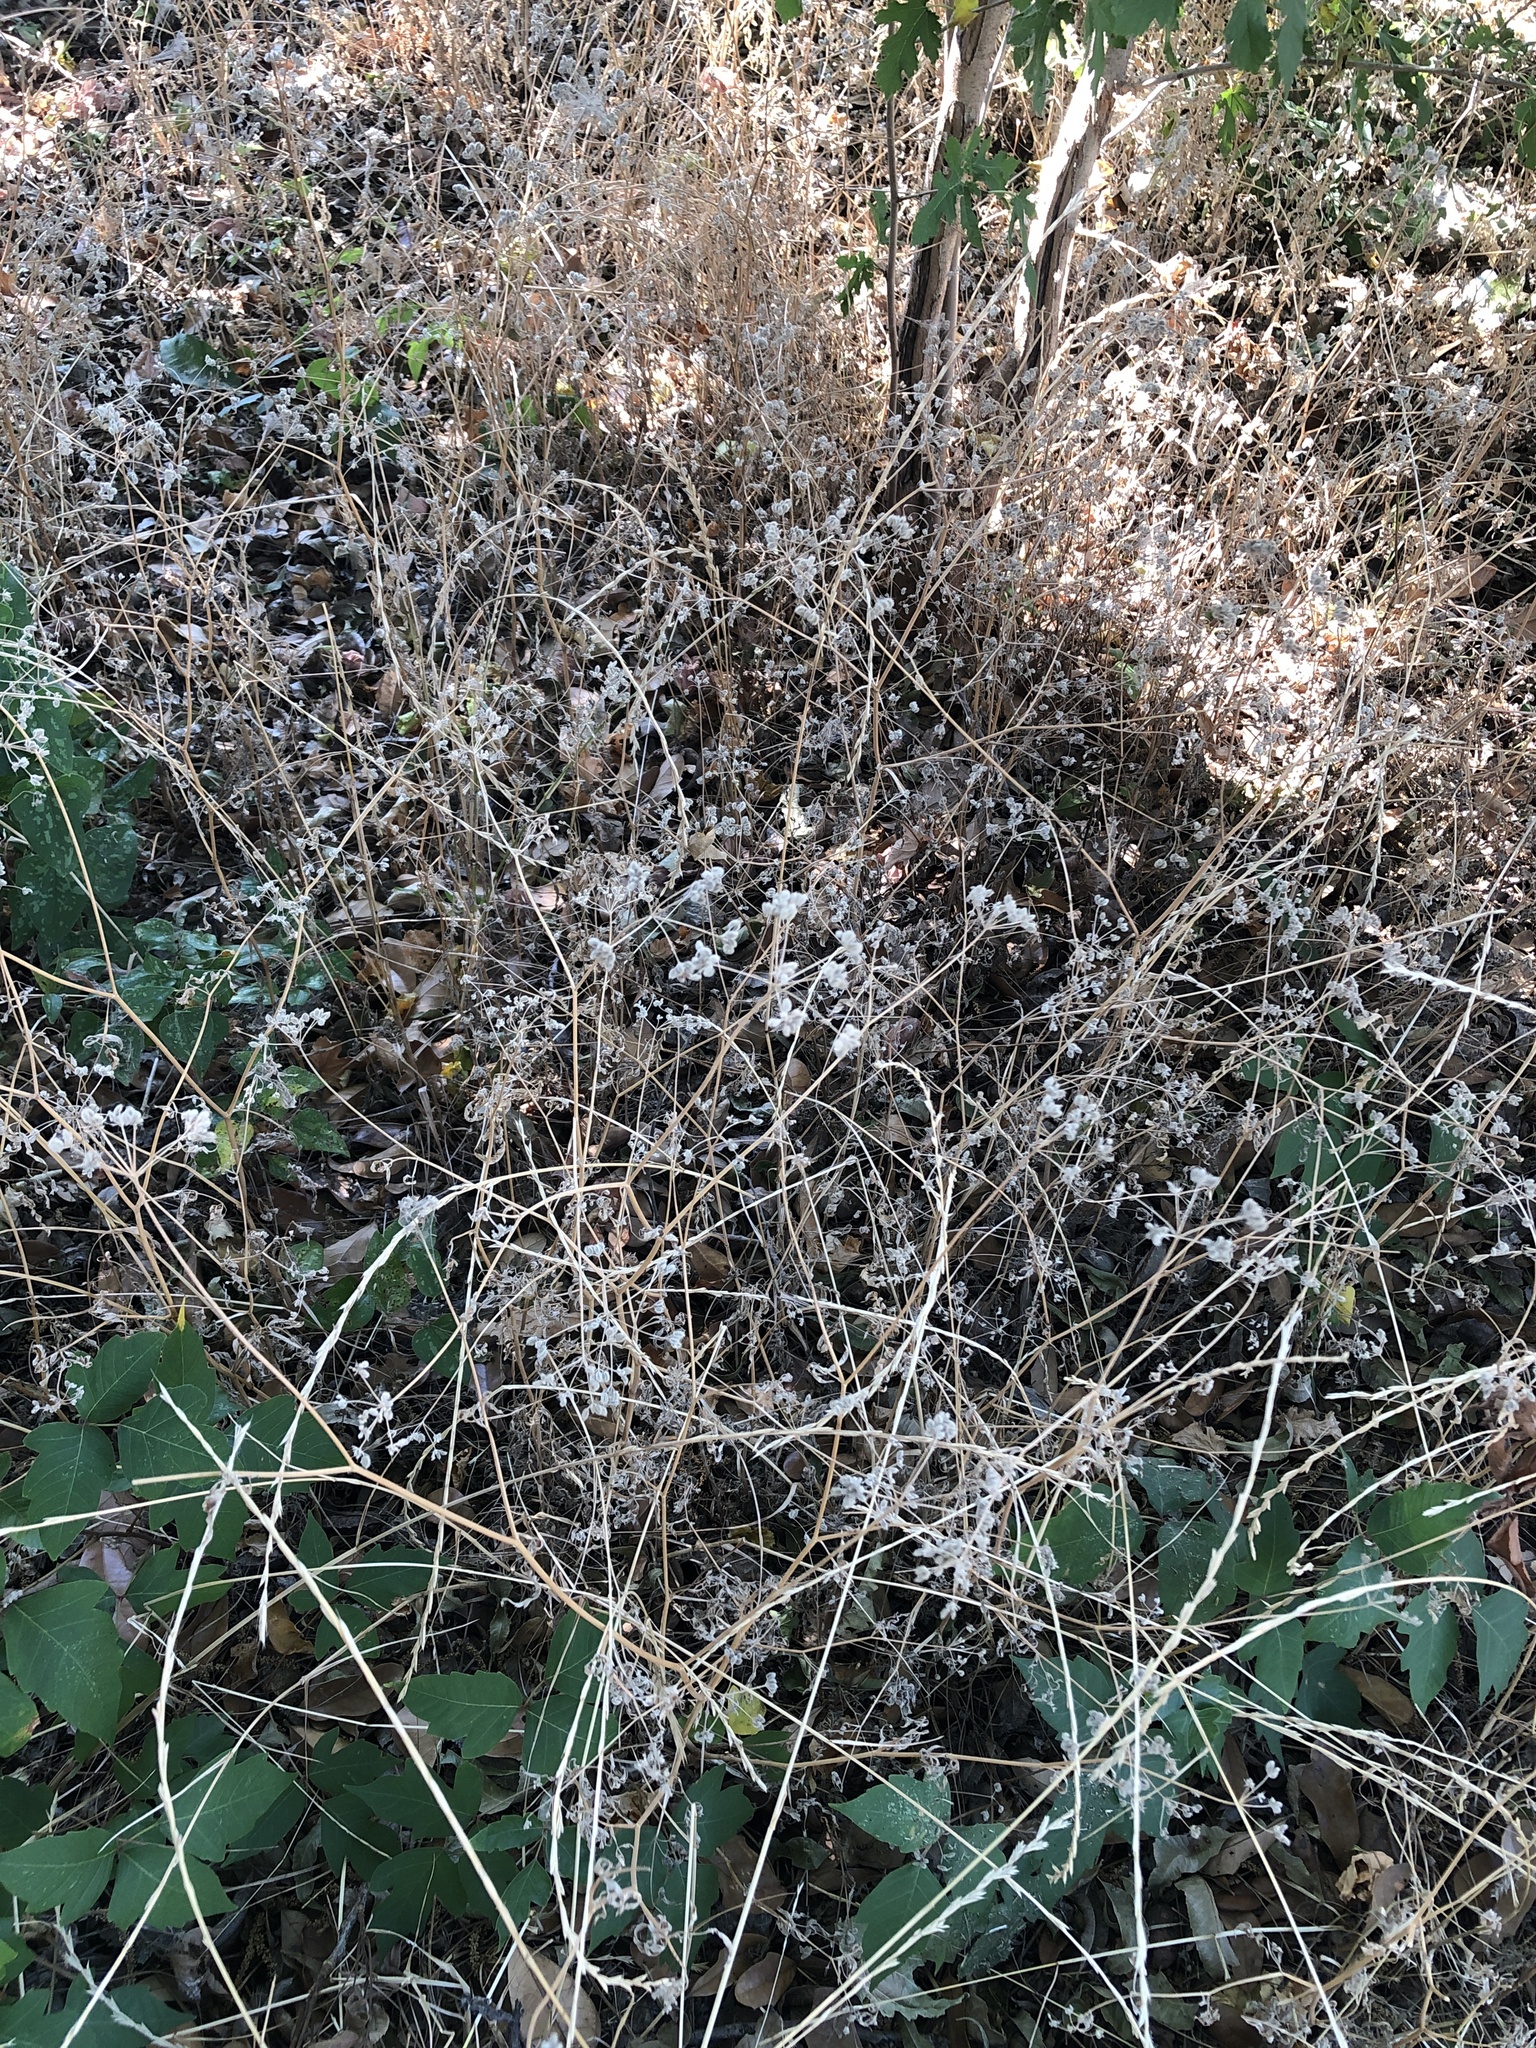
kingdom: Plantae
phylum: Tracheophyta
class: Magnoliopsida
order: Apiales
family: Apiaceae
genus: Torilis
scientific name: Torilis arvensis
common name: Spreading hedge-parsley
